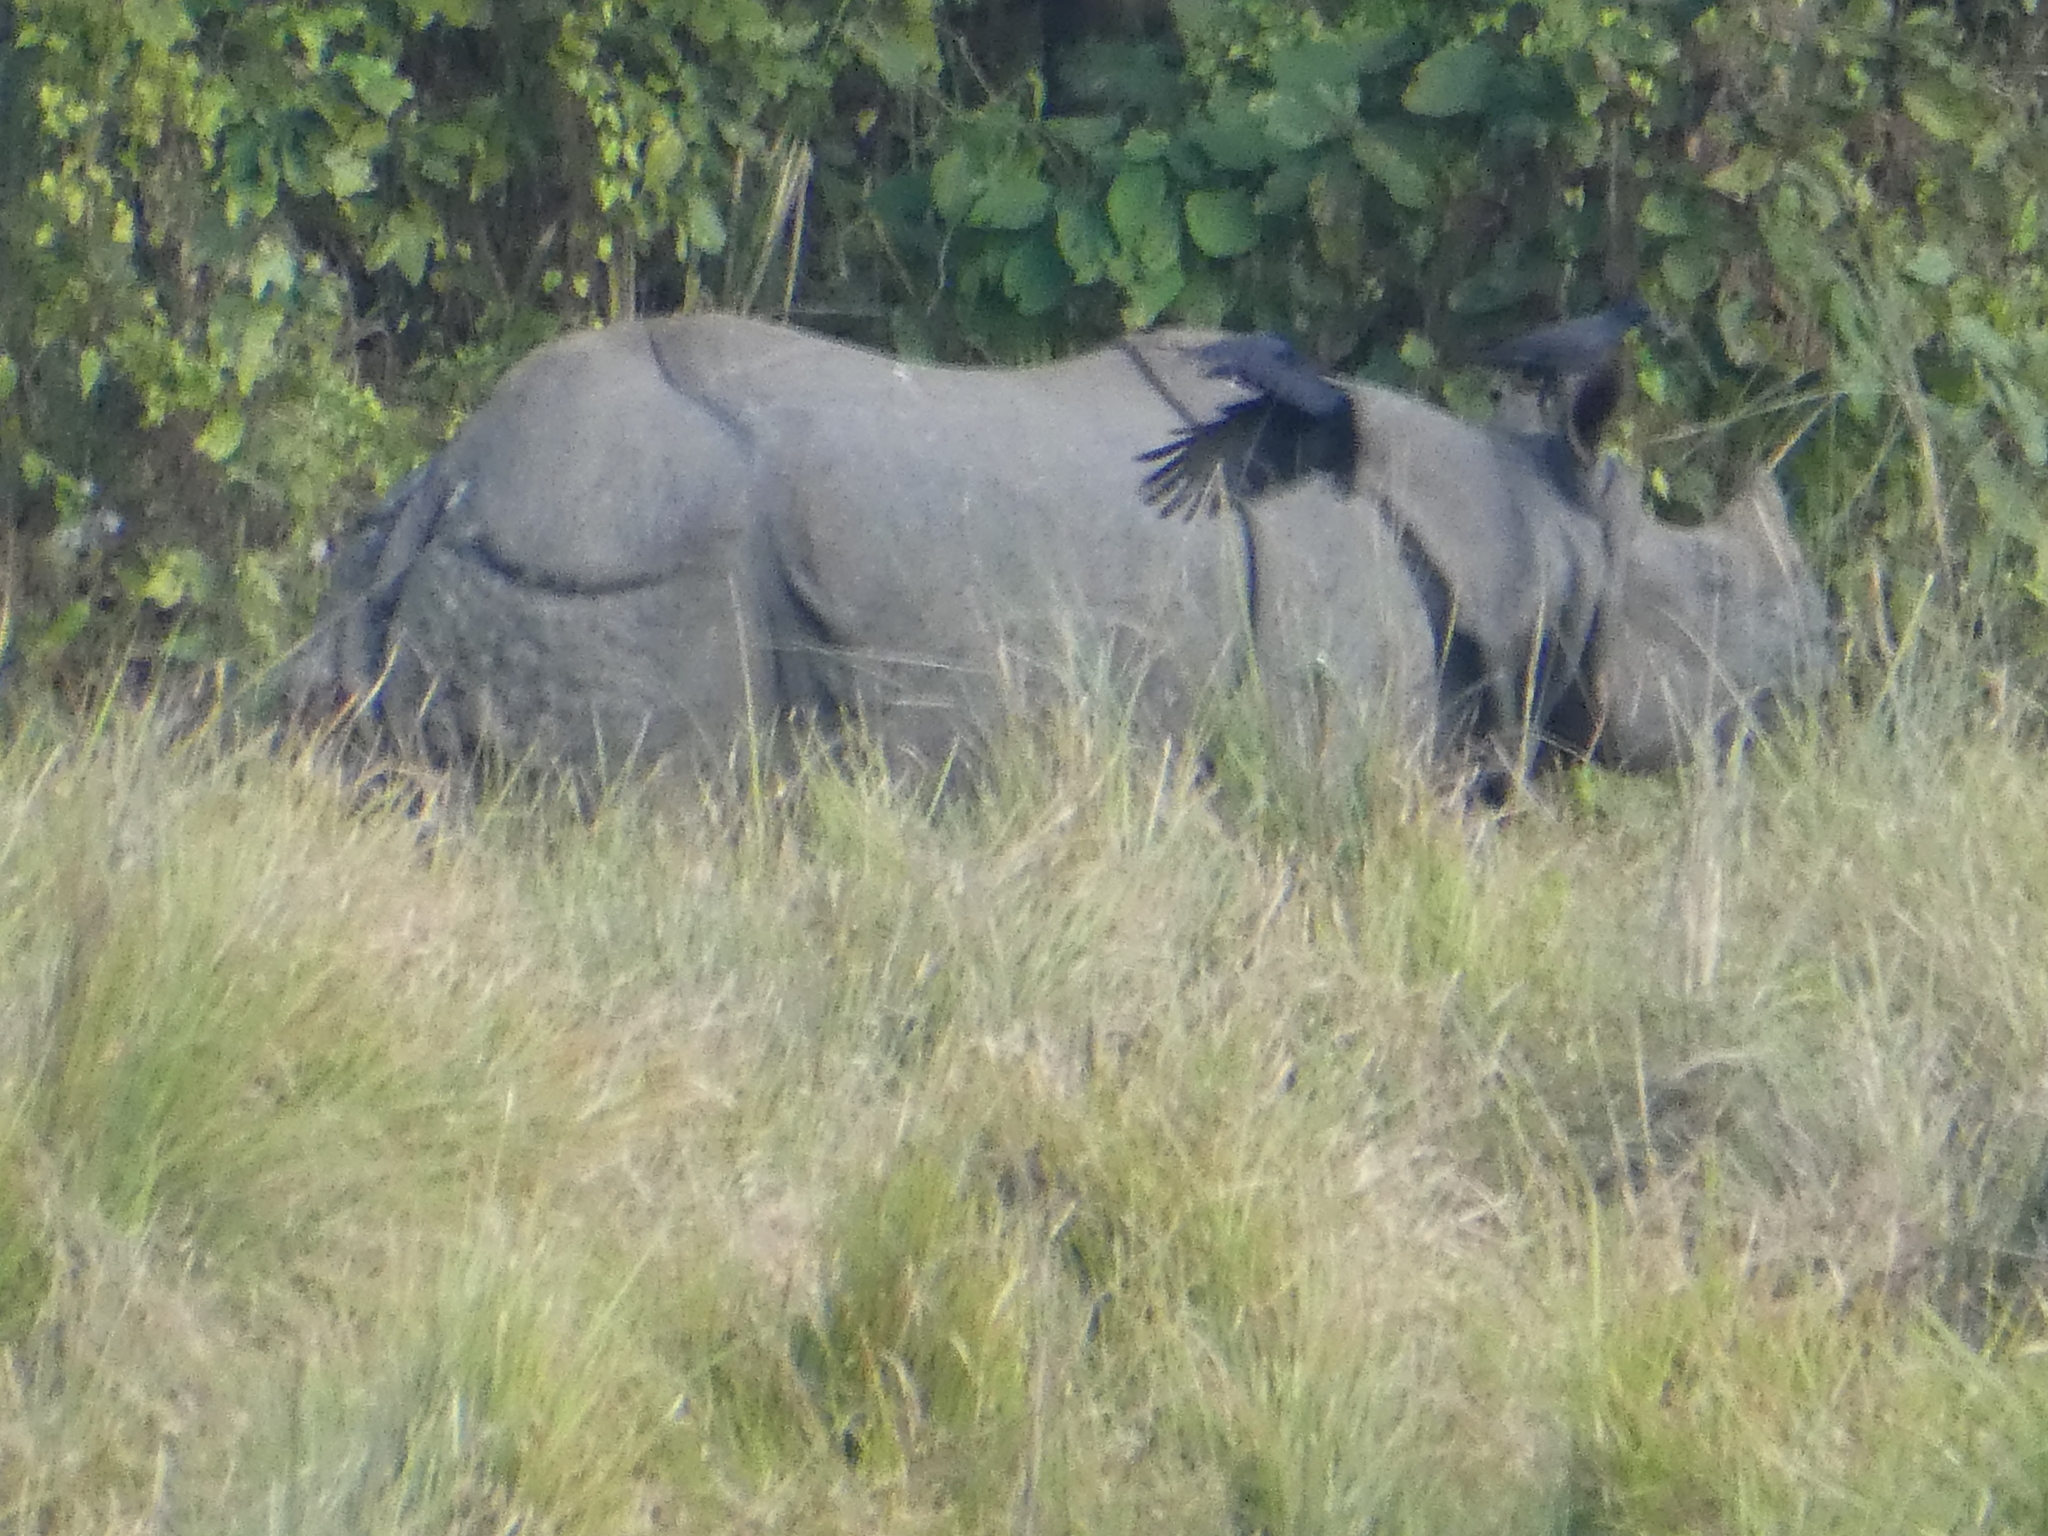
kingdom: Animalia
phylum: Chordata
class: Mammalia
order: Perissodactyla
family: Rhinocerotidae
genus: Rhinoceros
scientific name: Rhinoceros unicornis
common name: Indian rhinoceros
